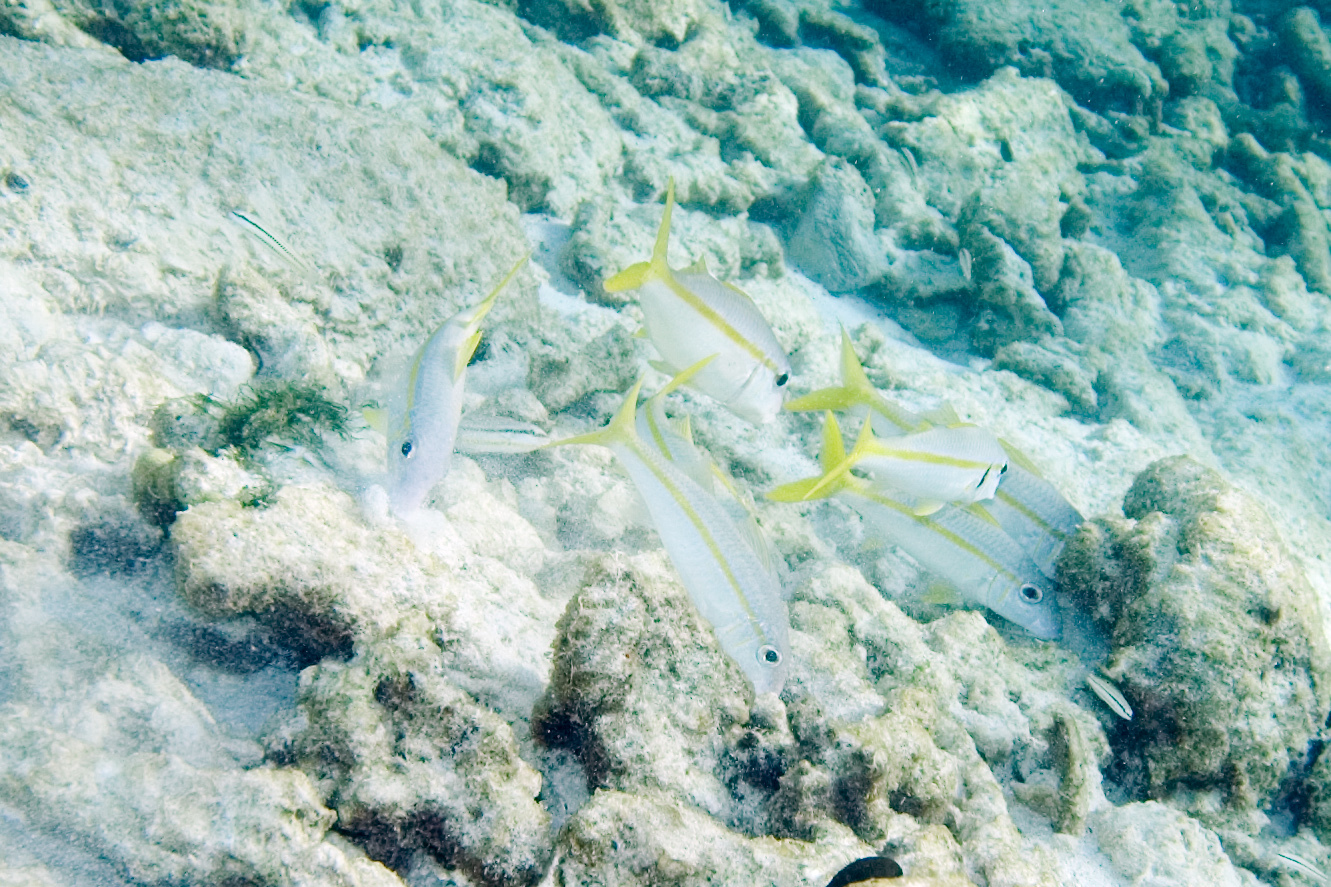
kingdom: Animalia
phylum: Chordata
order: Perciformes
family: Mullidae
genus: Mulloidichthys
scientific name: Mulloidichthys martinicus
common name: Yellow goatfish
